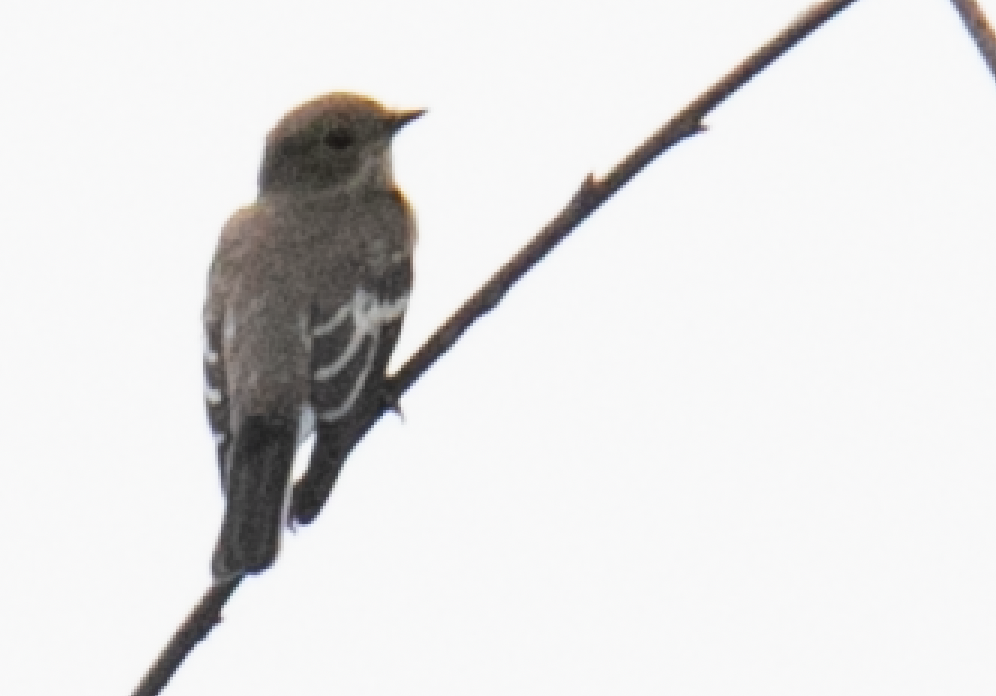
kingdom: Animalia
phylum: Chordata
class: Aves
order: Passeriformes
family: Muscicapidae
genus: Ficedula
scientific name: Ficedula hypoleuca
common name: European pied flycatcher
